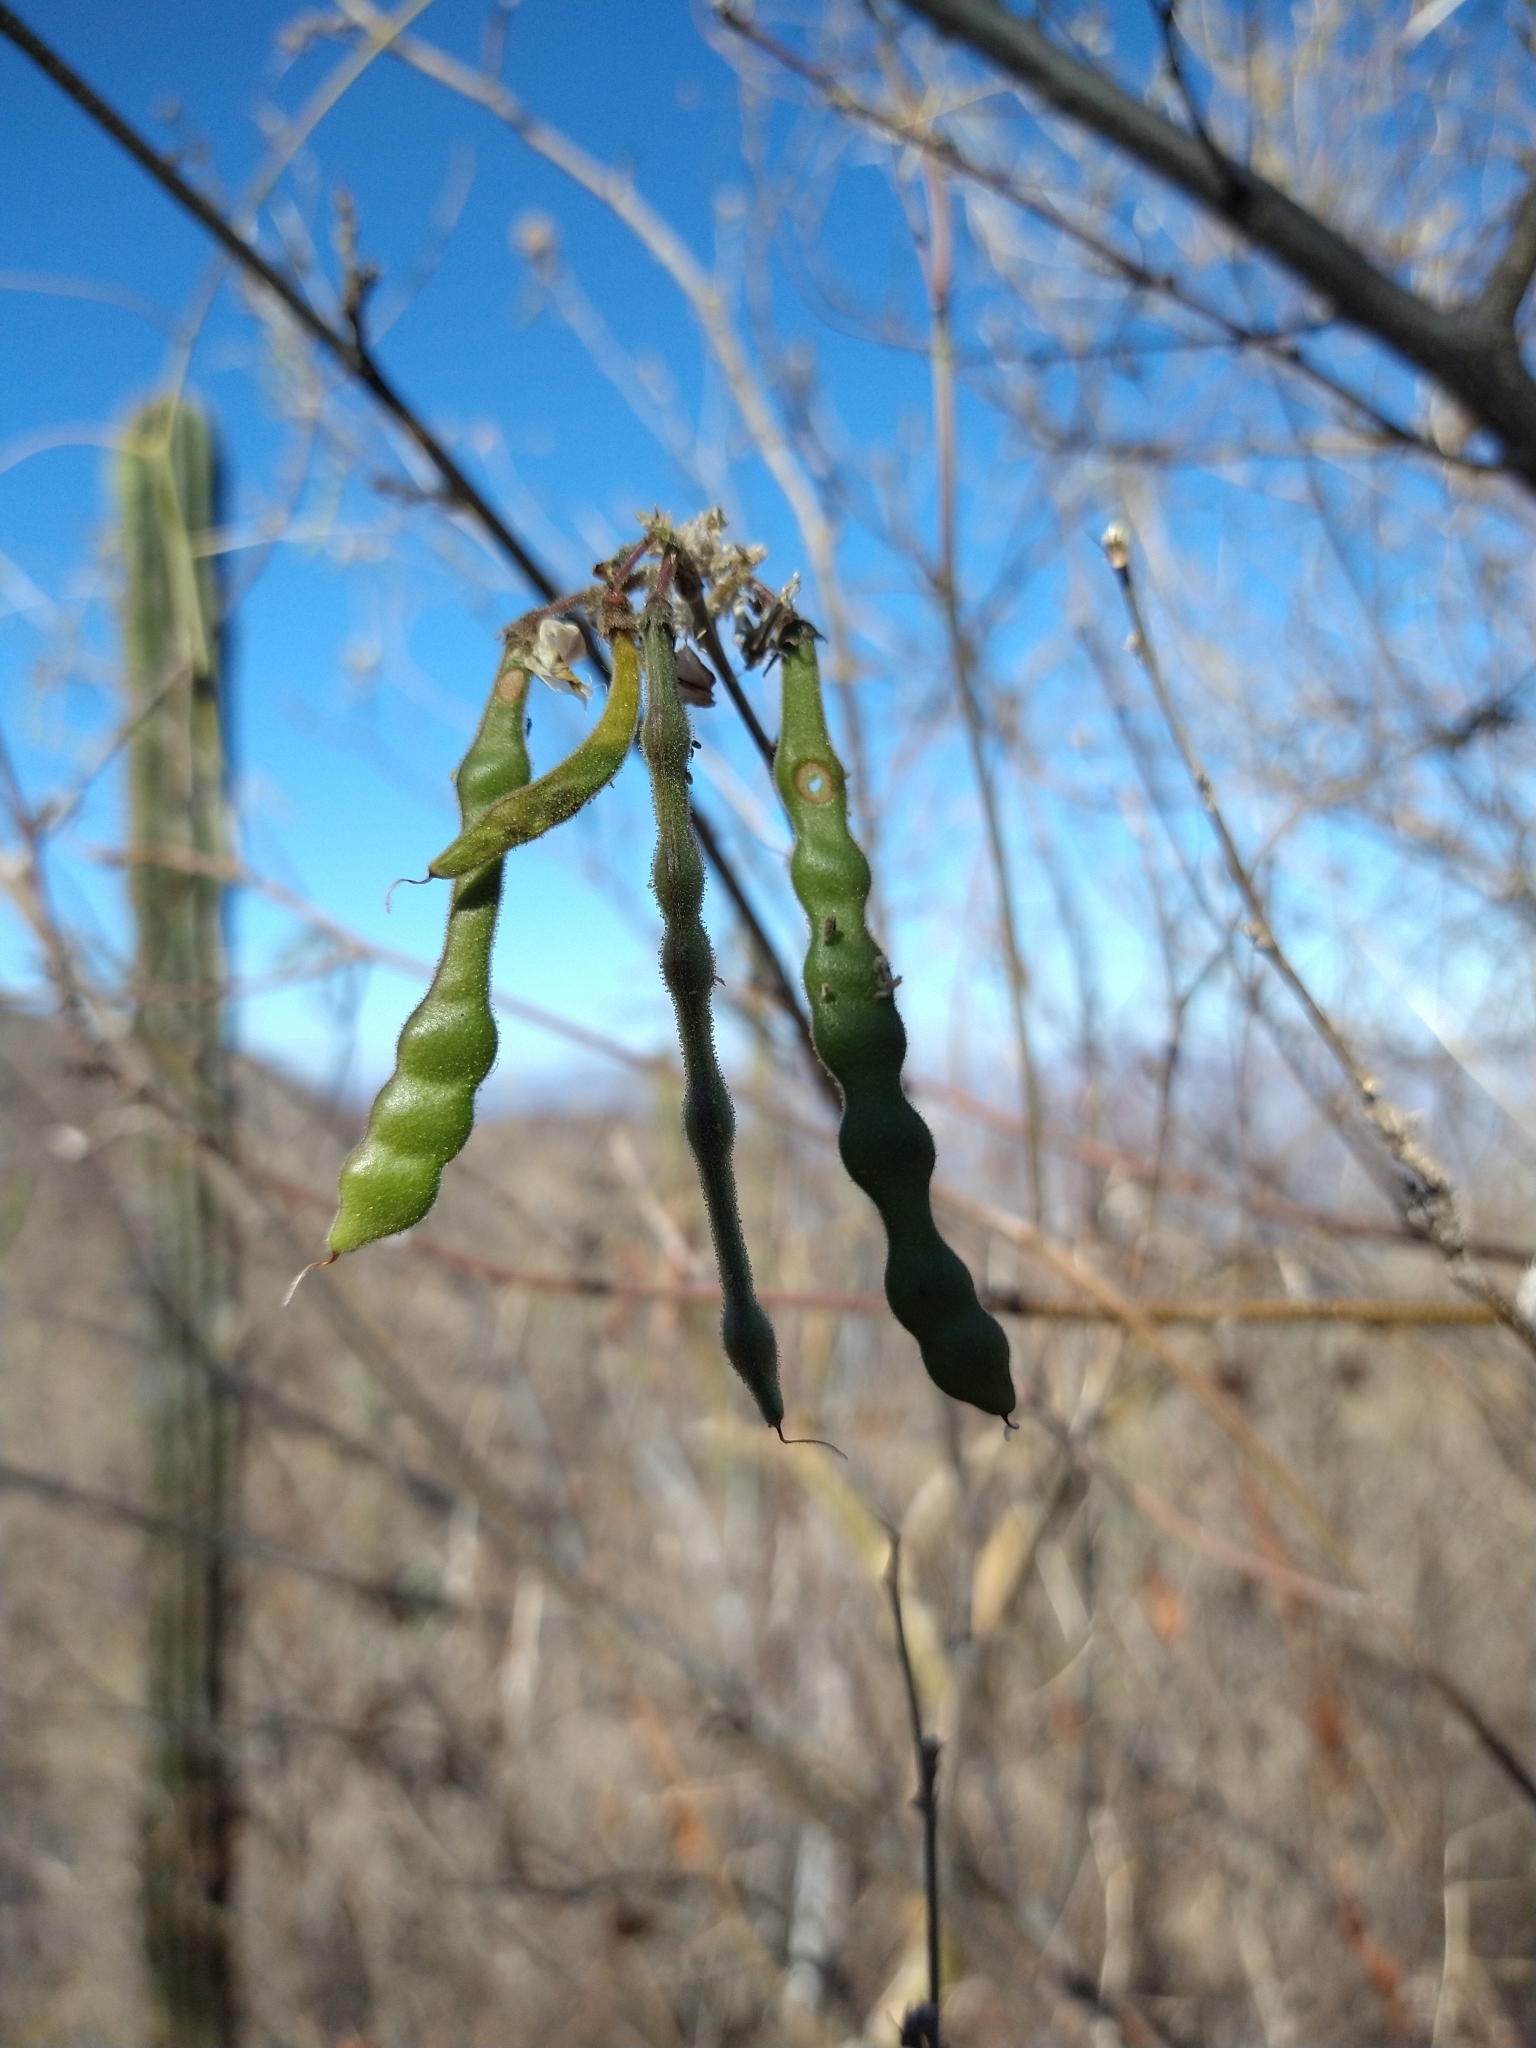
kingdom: Plantae
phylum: Tracheophyta
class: Magnoliopsida
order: Fabales
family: Fabaceae
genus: Coursetia
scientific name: Coursetia glandulosa
